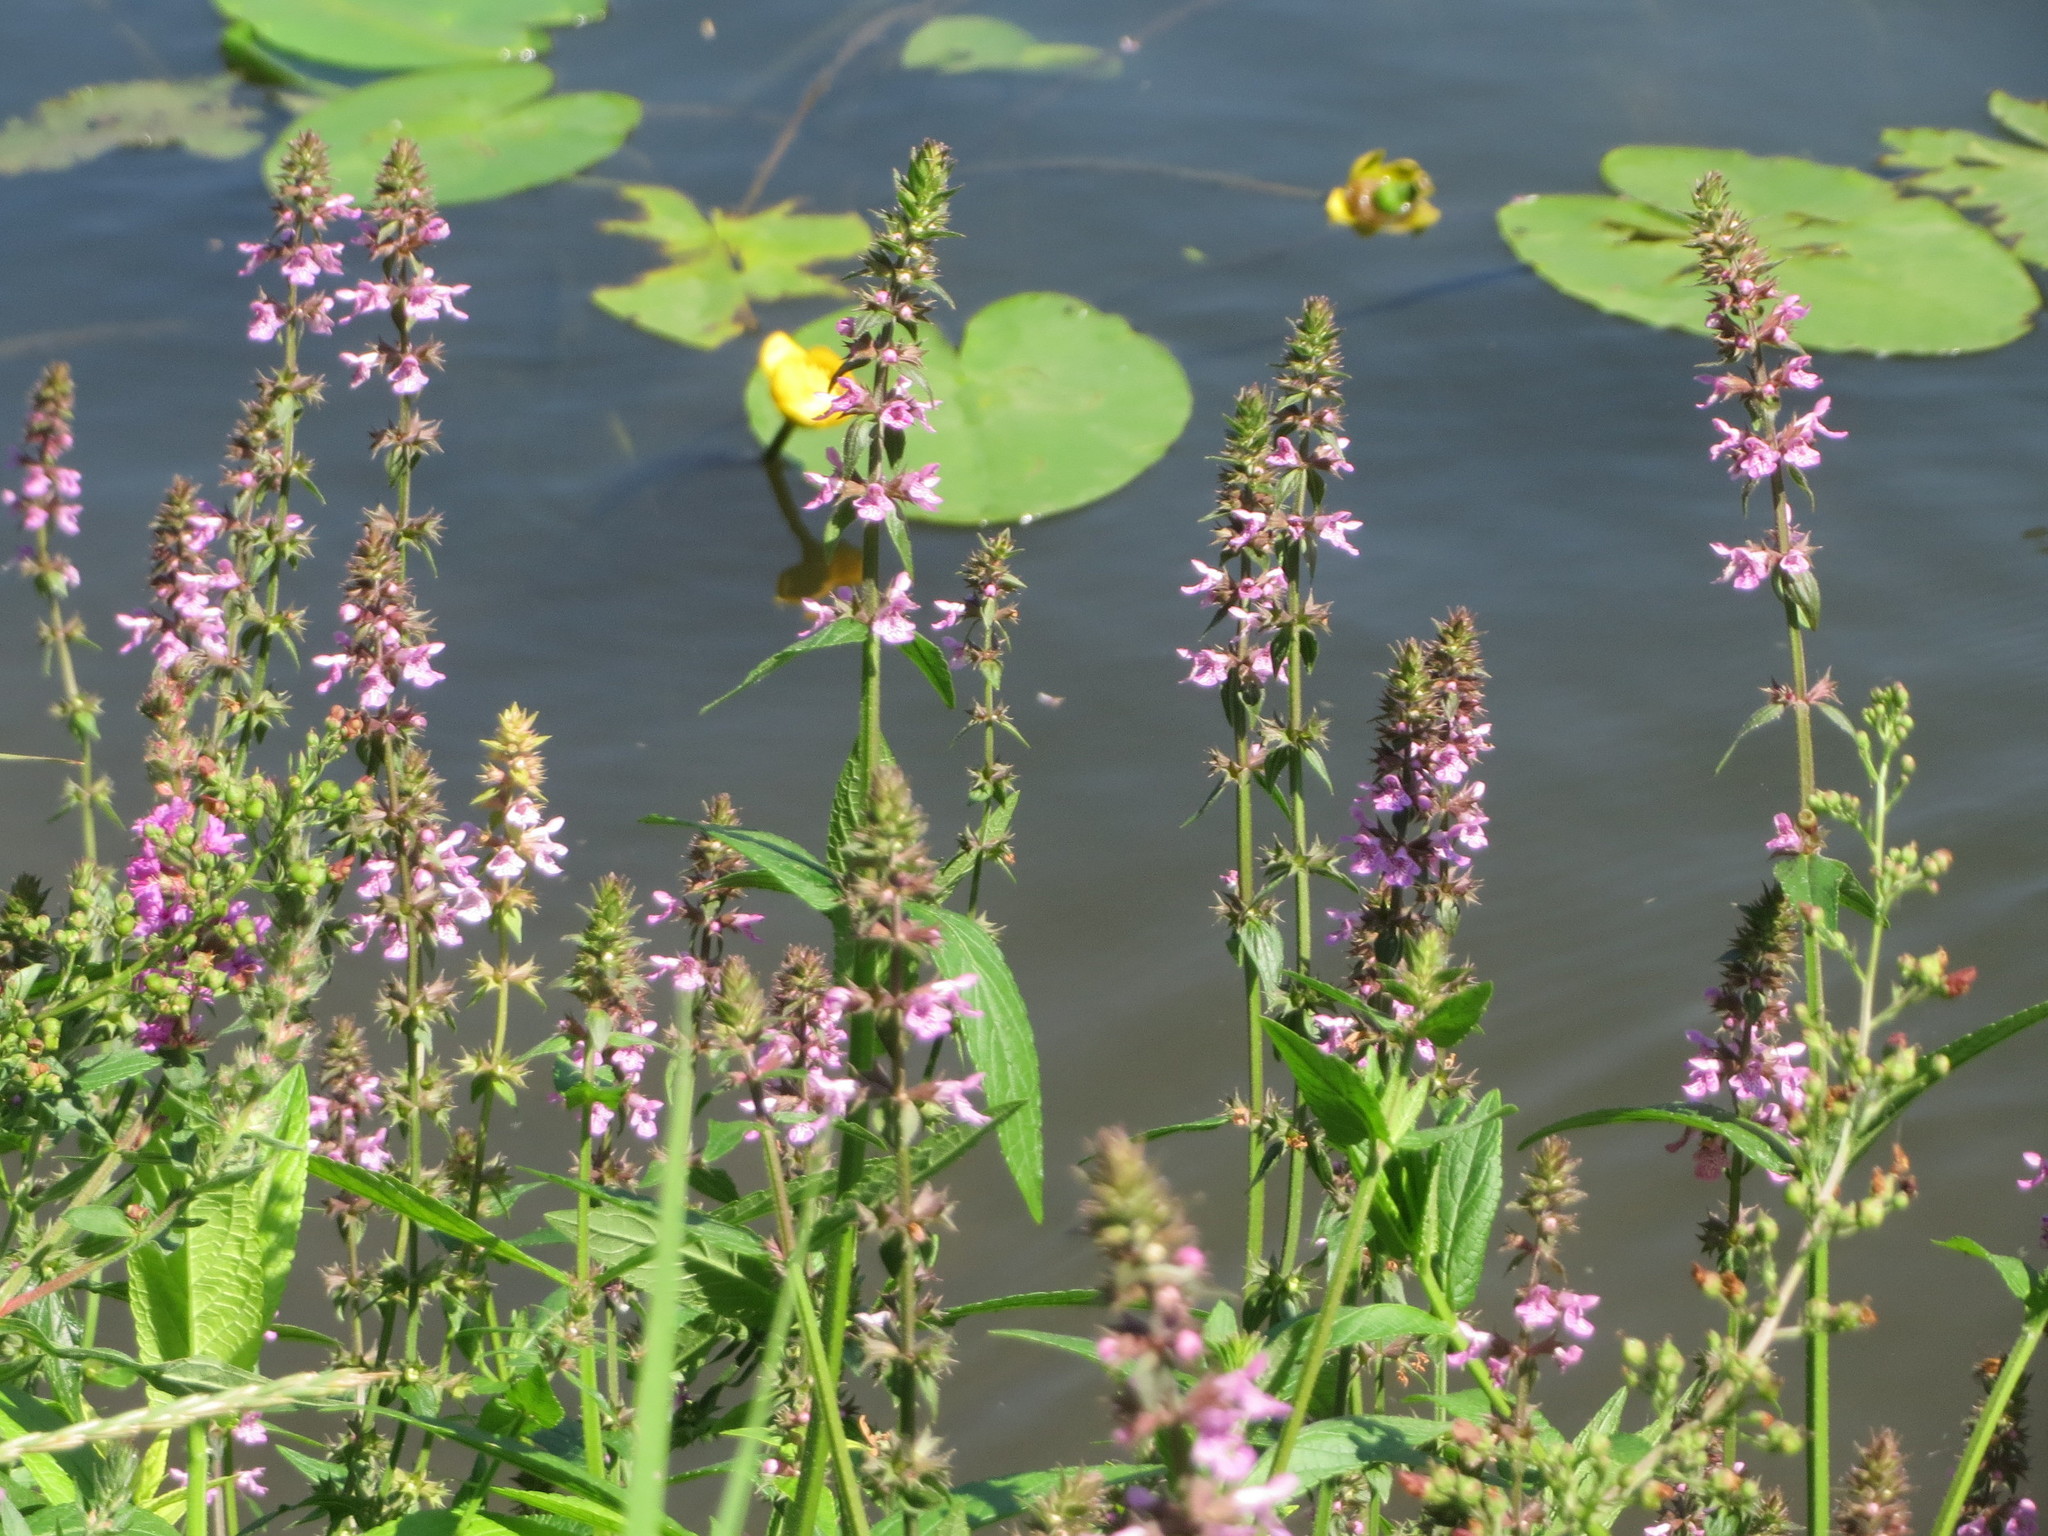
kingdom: Plantae
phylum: Tracheophyta
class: Magnoliopsida
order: Lamiales
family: Lamiaceae
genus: Stachys
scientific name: Stachys palustris
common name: Marsh woundwort
